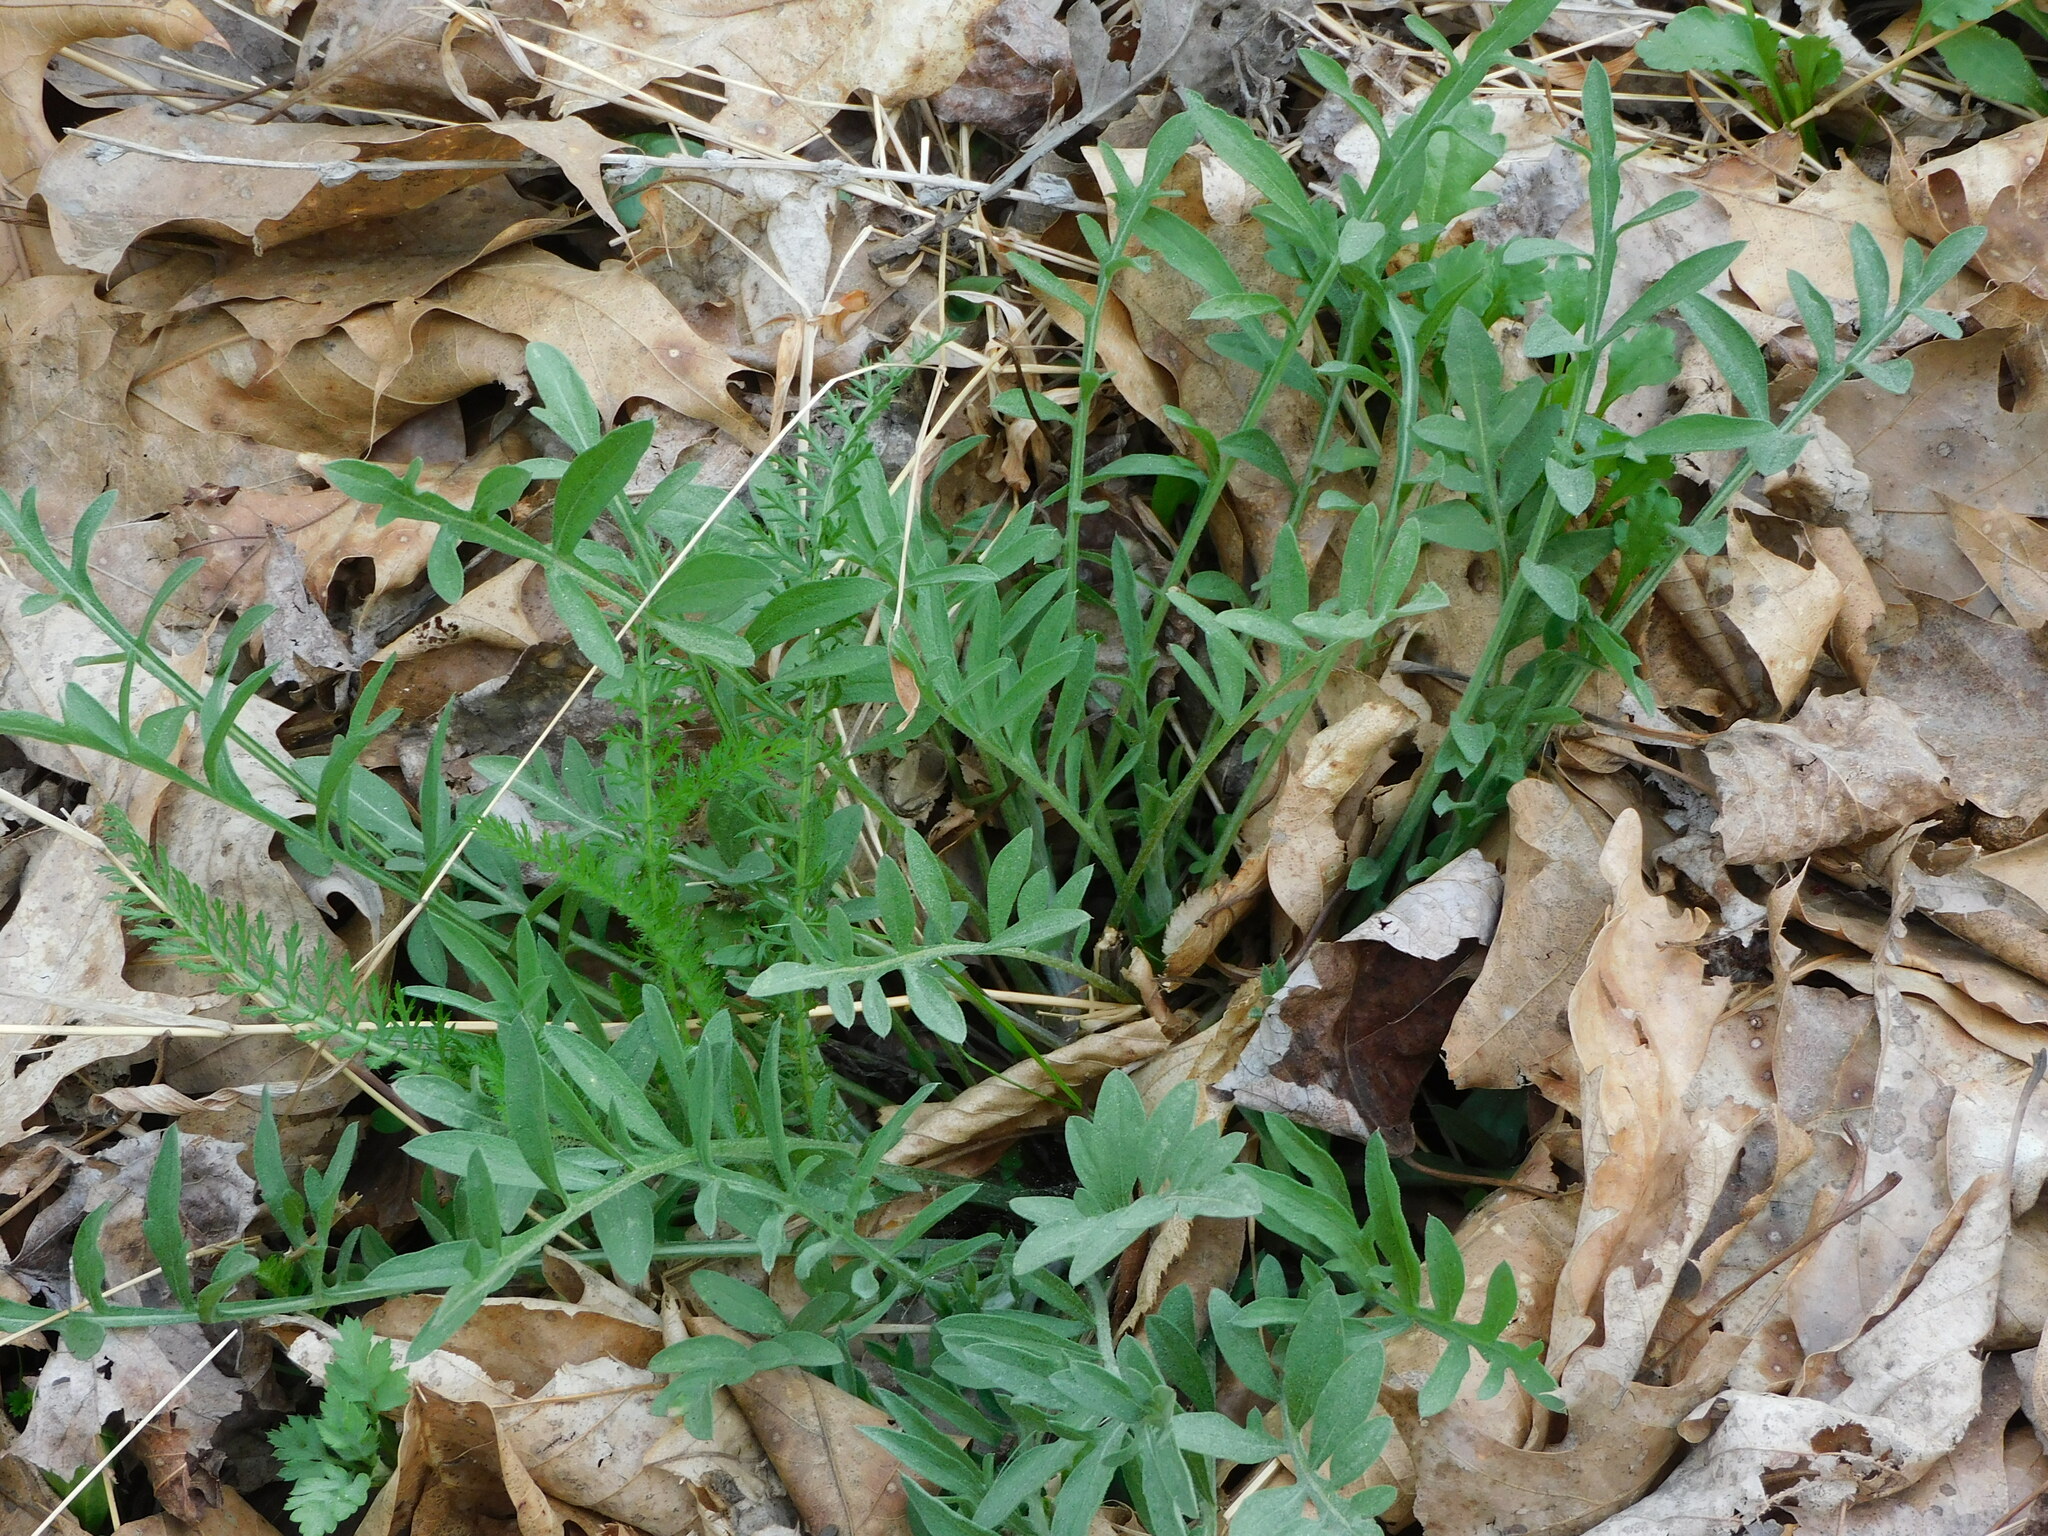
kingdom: Plantae
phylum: Tracheophyta
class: Magnoliopsida
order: Asterales
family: Asteraceae
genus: Centaurea
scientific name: Centaurea stoebe
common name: Spotted knapweed
